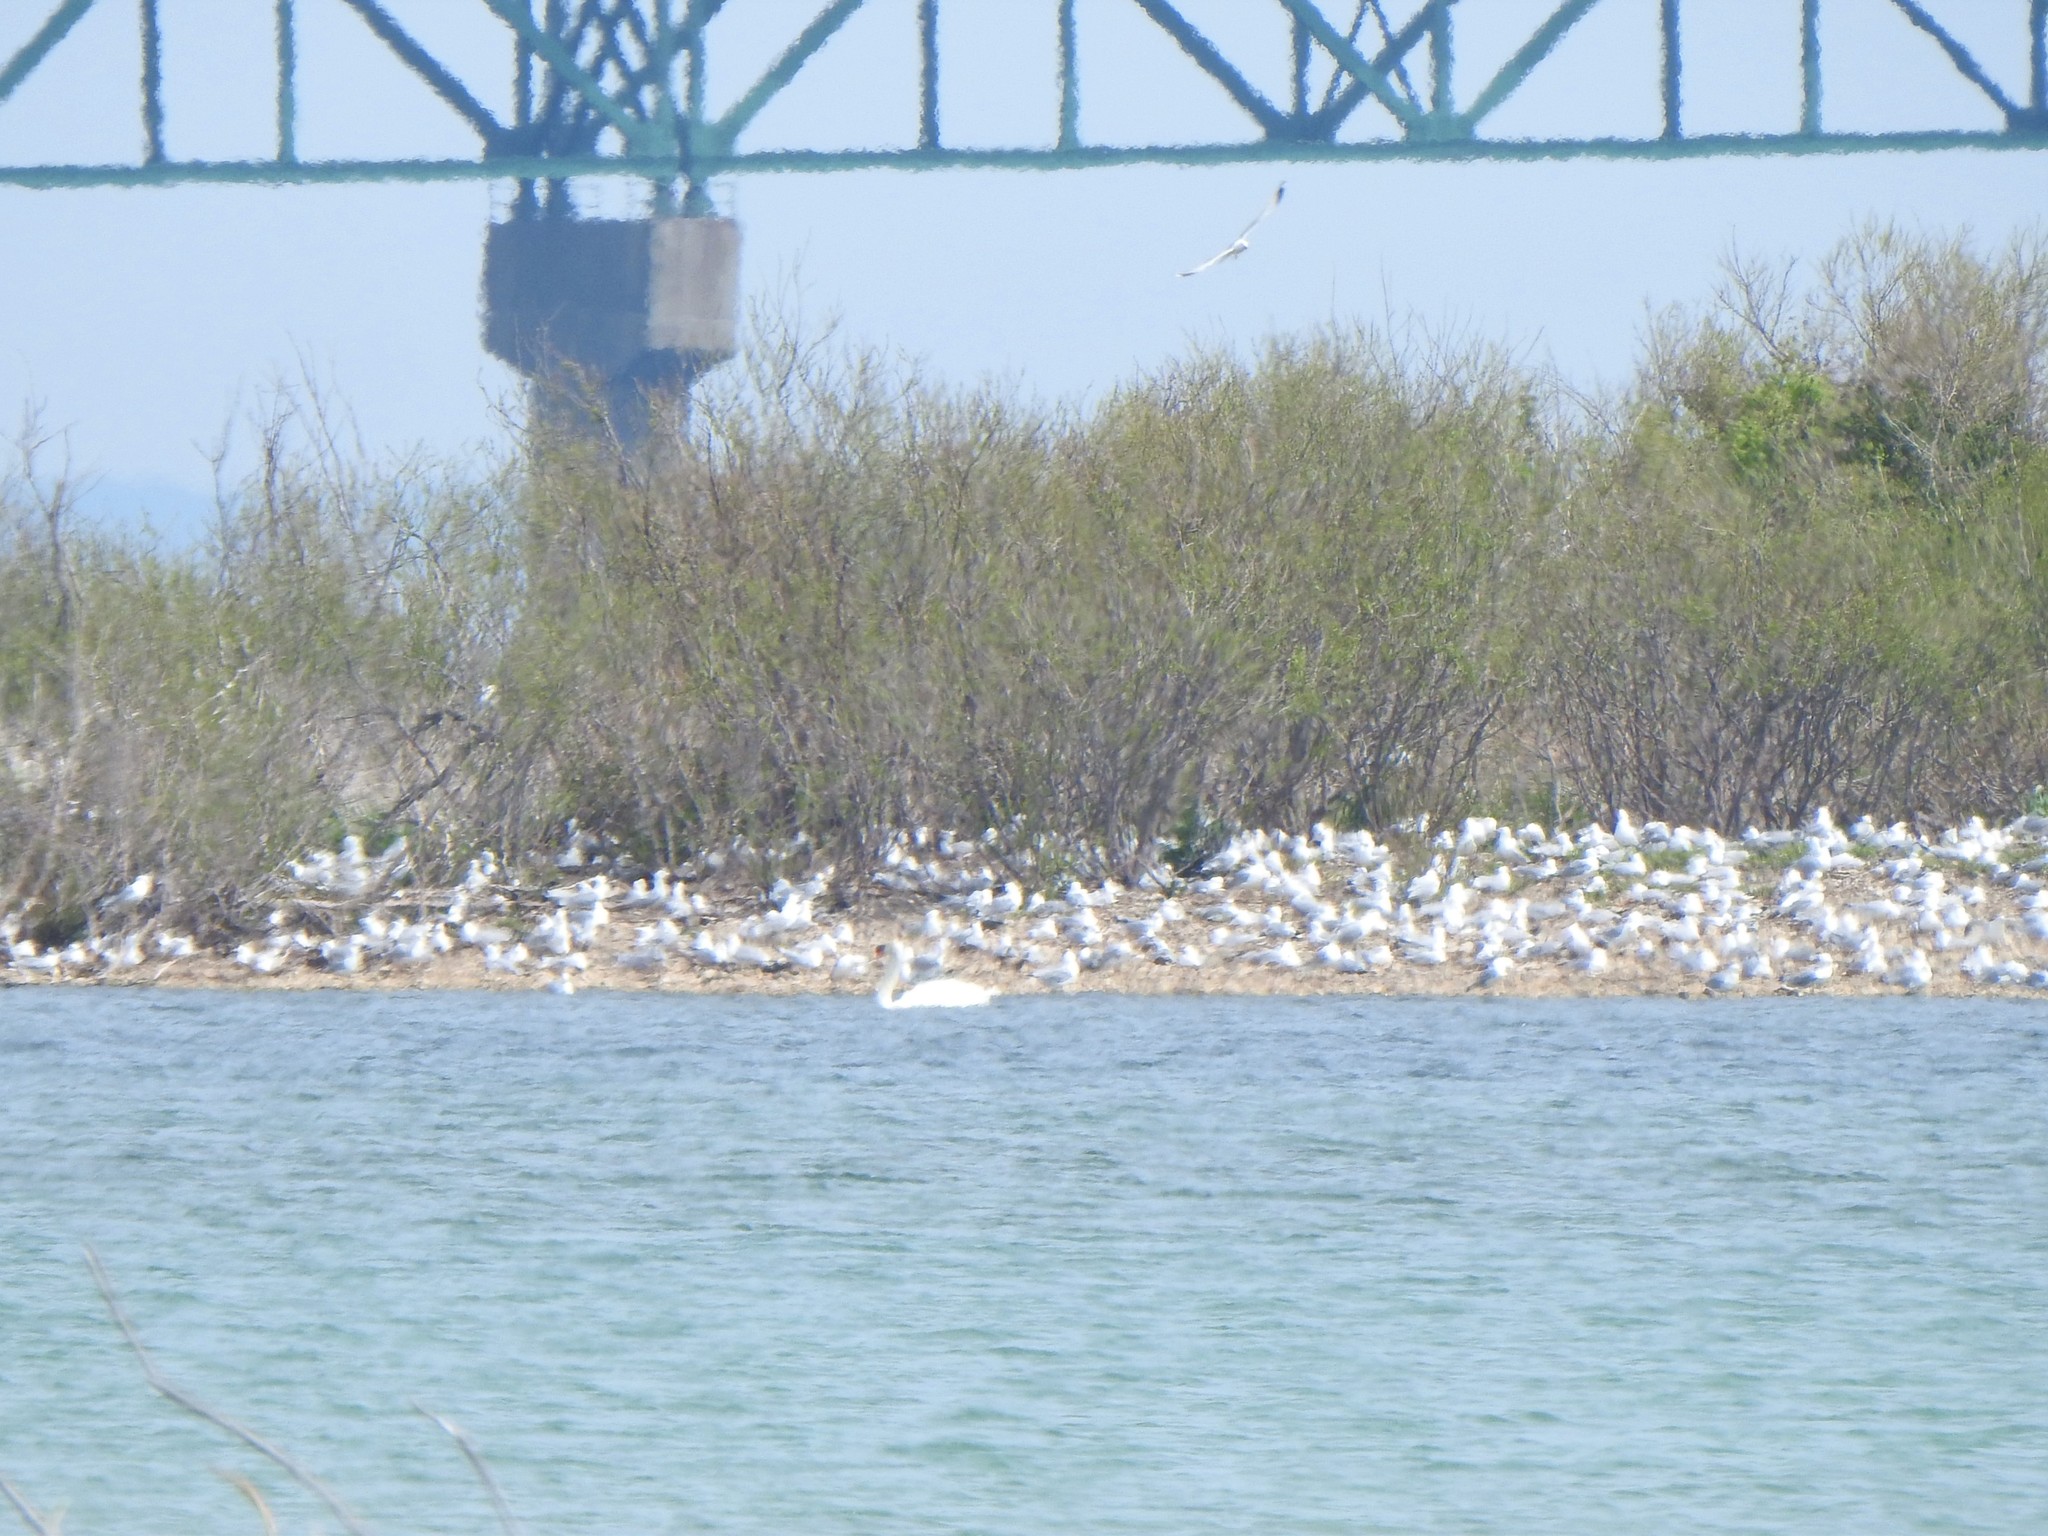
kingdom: Animalia
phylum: Chordata
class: Aves
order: Anseriformes
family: Anatidae
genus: Cygnus
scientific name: Cygnus olor
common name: Mute swan
